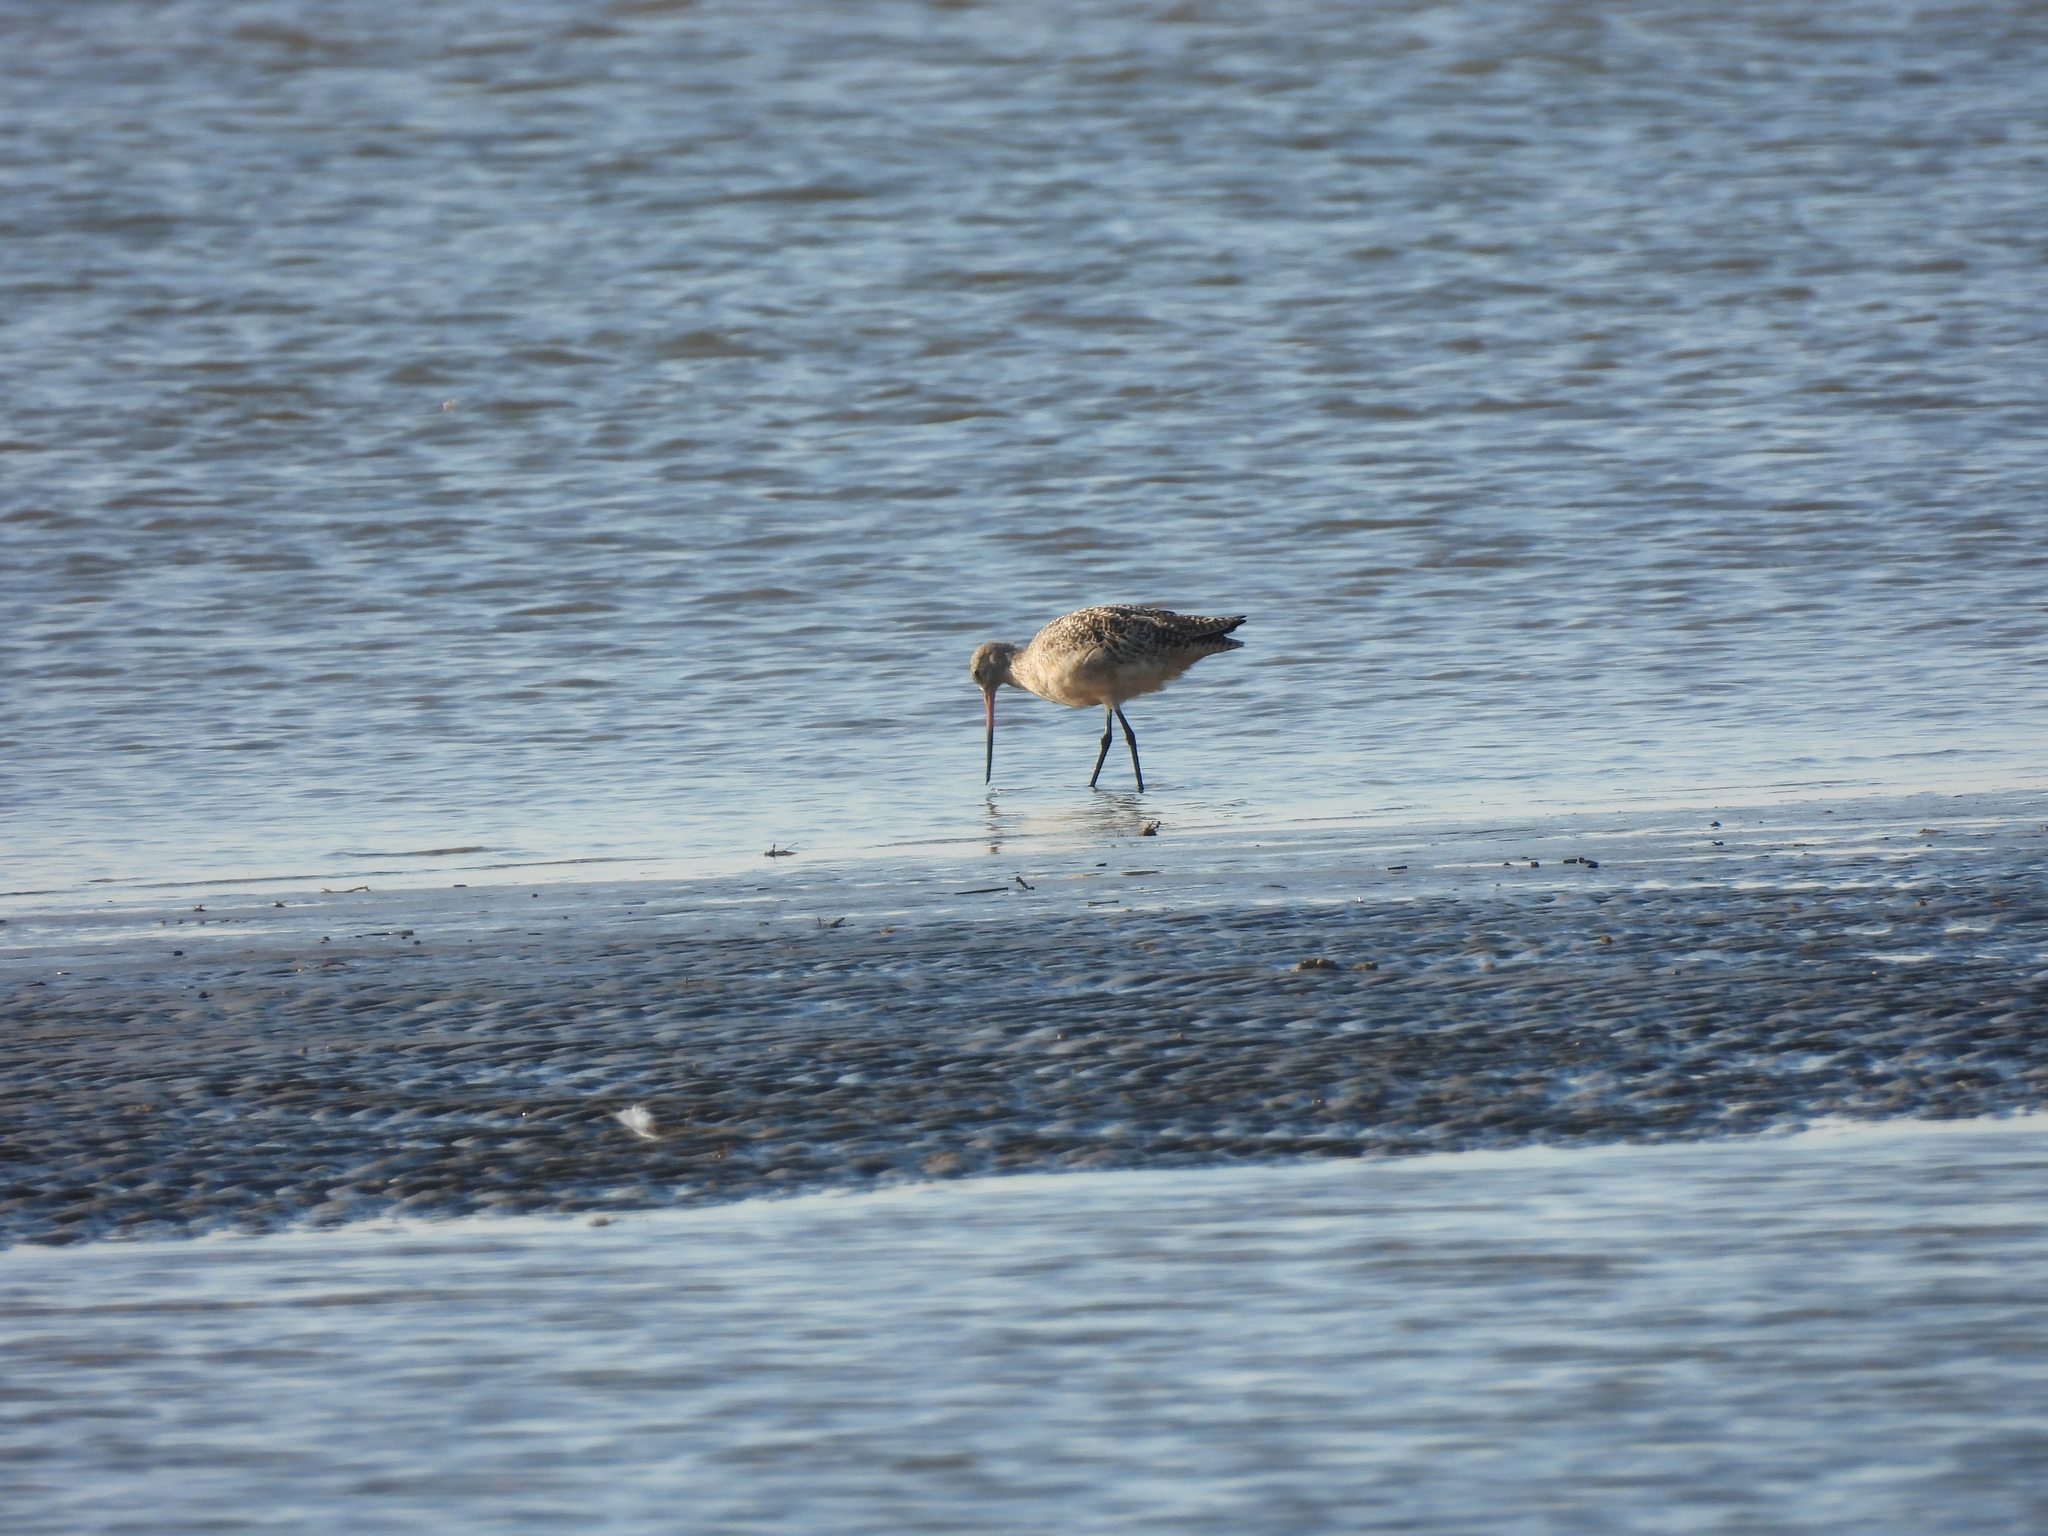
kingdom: Animalia
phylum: Chordata
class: Aves
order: Charadriiformes
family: Scolopacidae
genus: Limosa
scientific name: Limosa fedoa
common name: Marbled godwit
